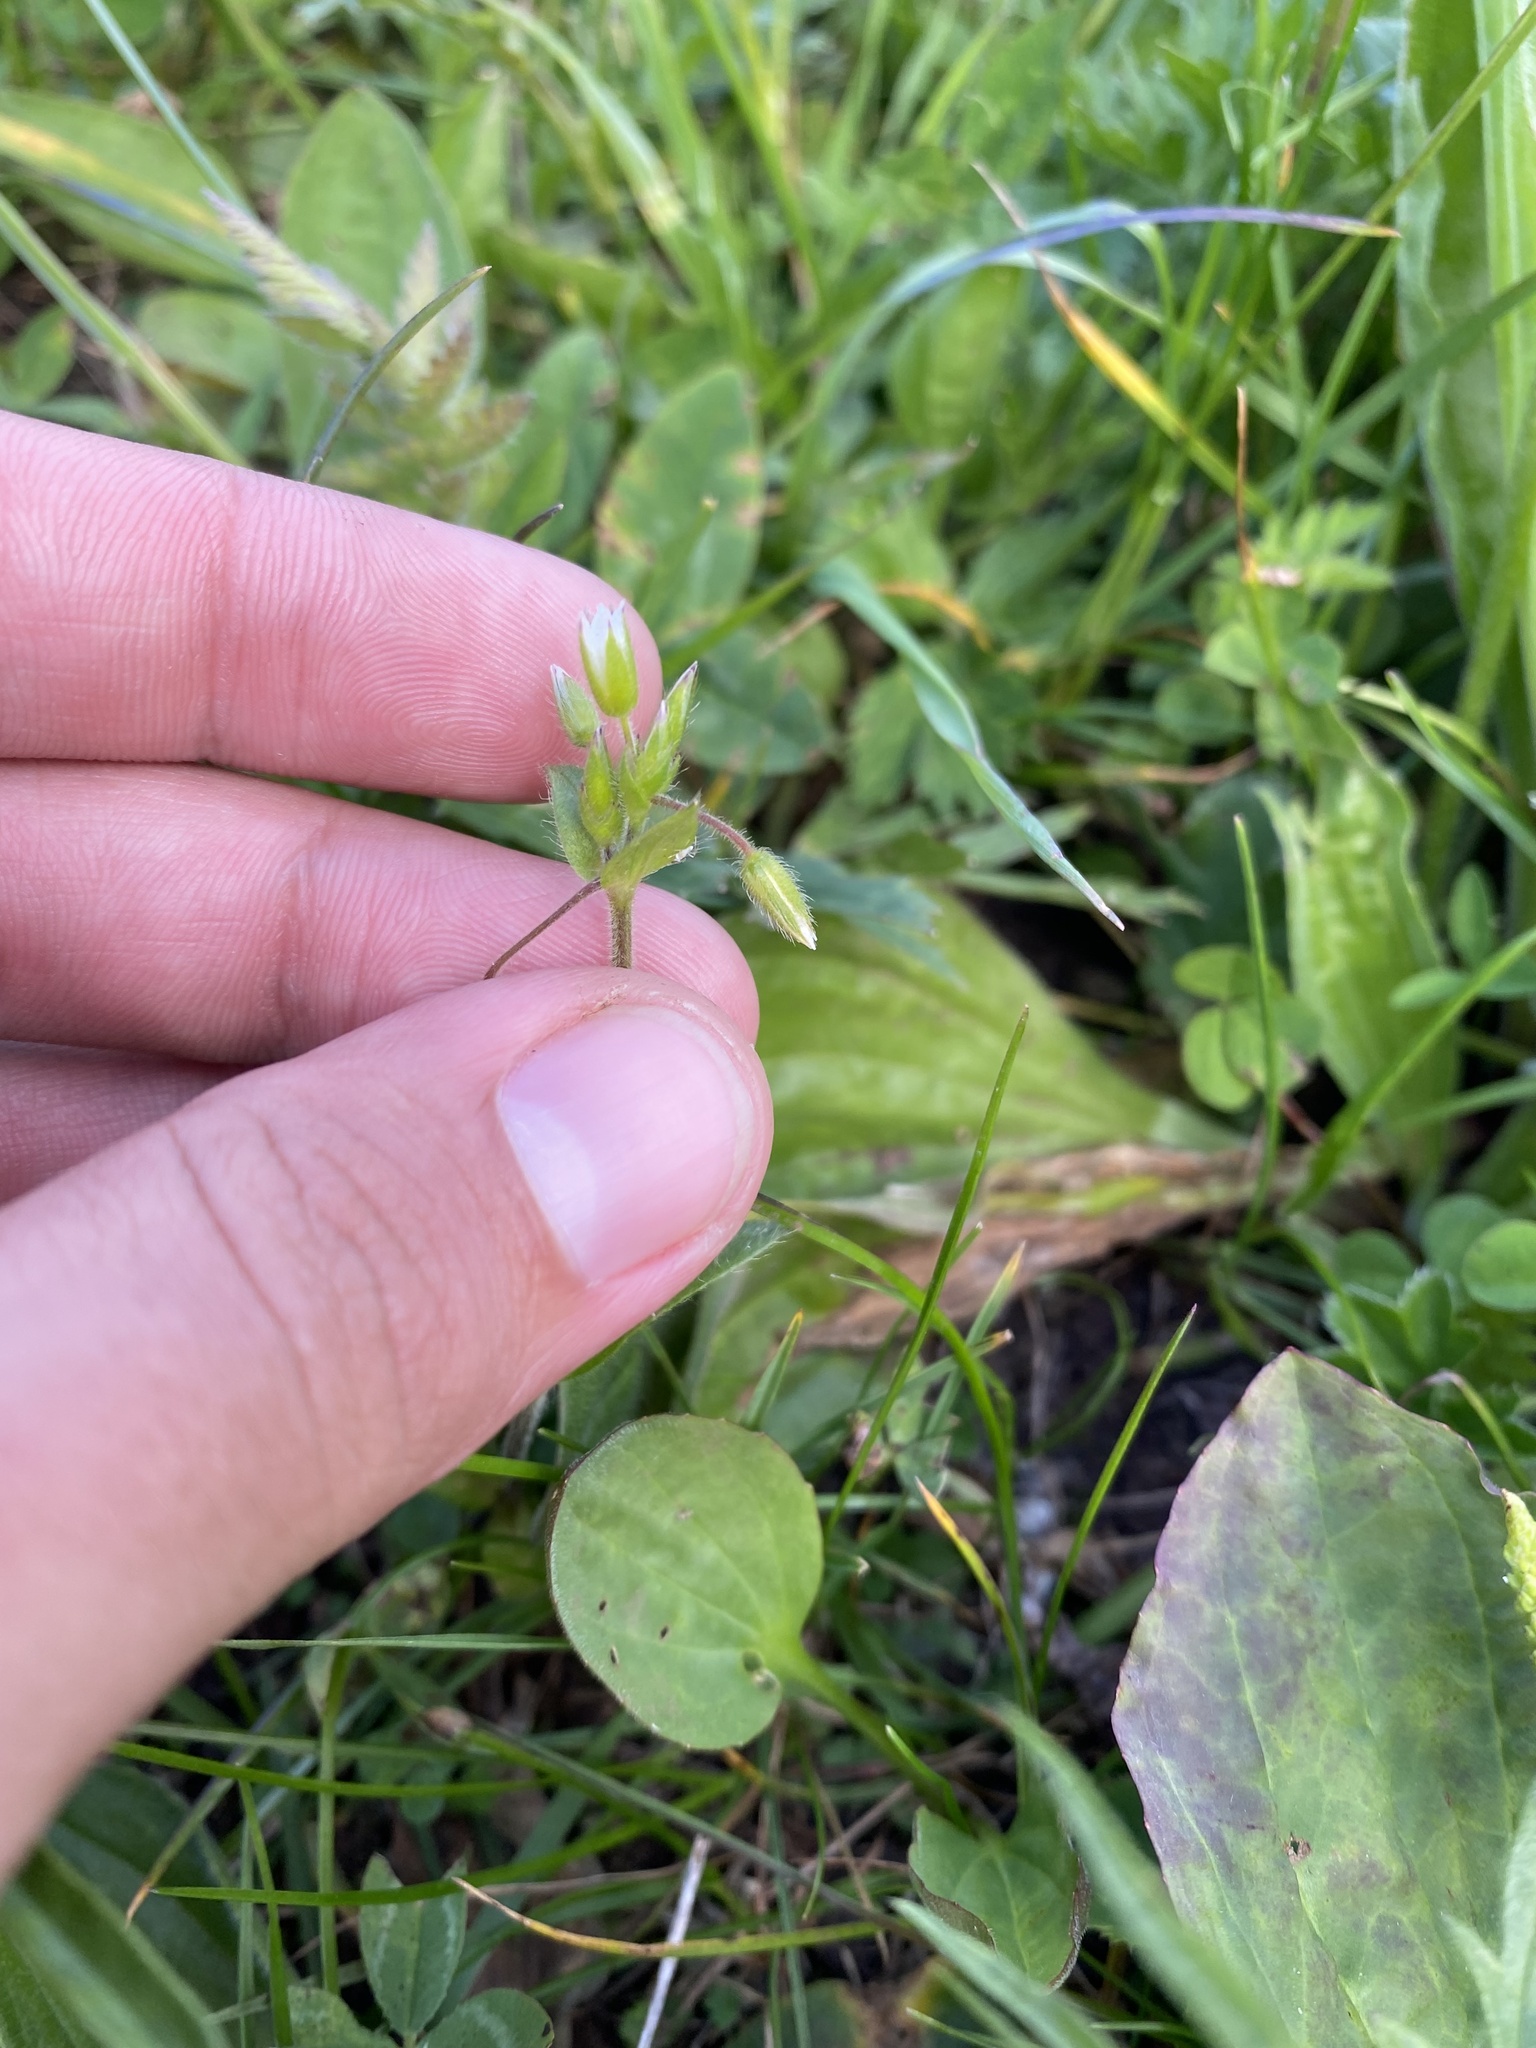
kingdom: Plantae
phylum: Tracheophyta
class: Magnoliopsida
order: Caryophyllales
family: Caryophyllaceae
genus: Cerastium
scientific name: Cerastium holosteoides
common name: Big chickweed
